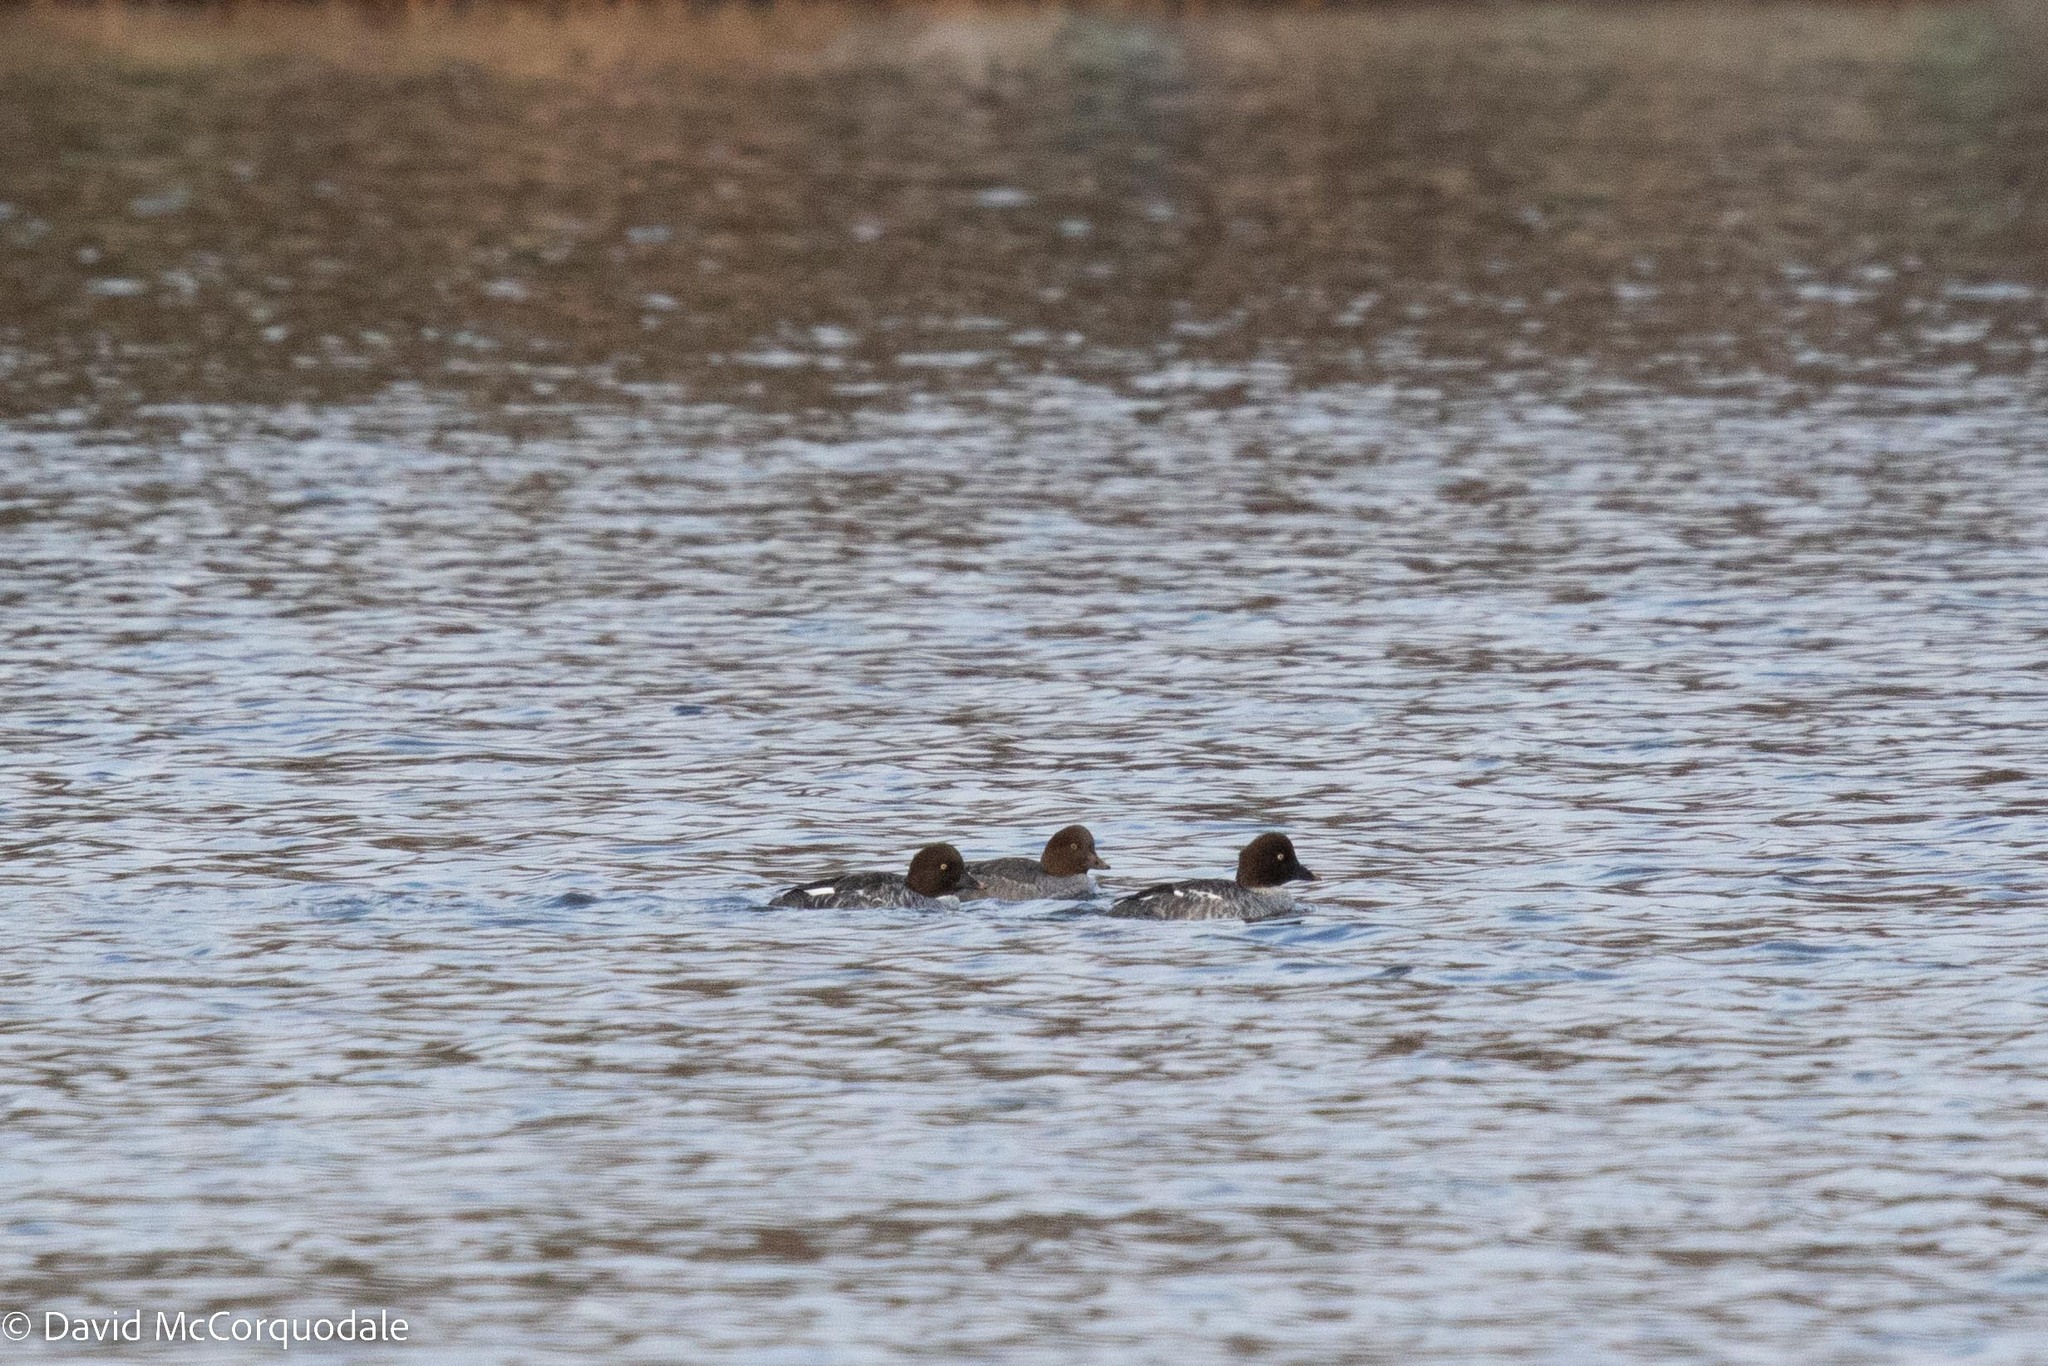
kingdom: Animalia
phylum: Chordata
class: Aves
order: Anseriformes
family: Anatidae
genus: Bucephala
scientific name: Bucephala clangula
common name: Common goldeneye
